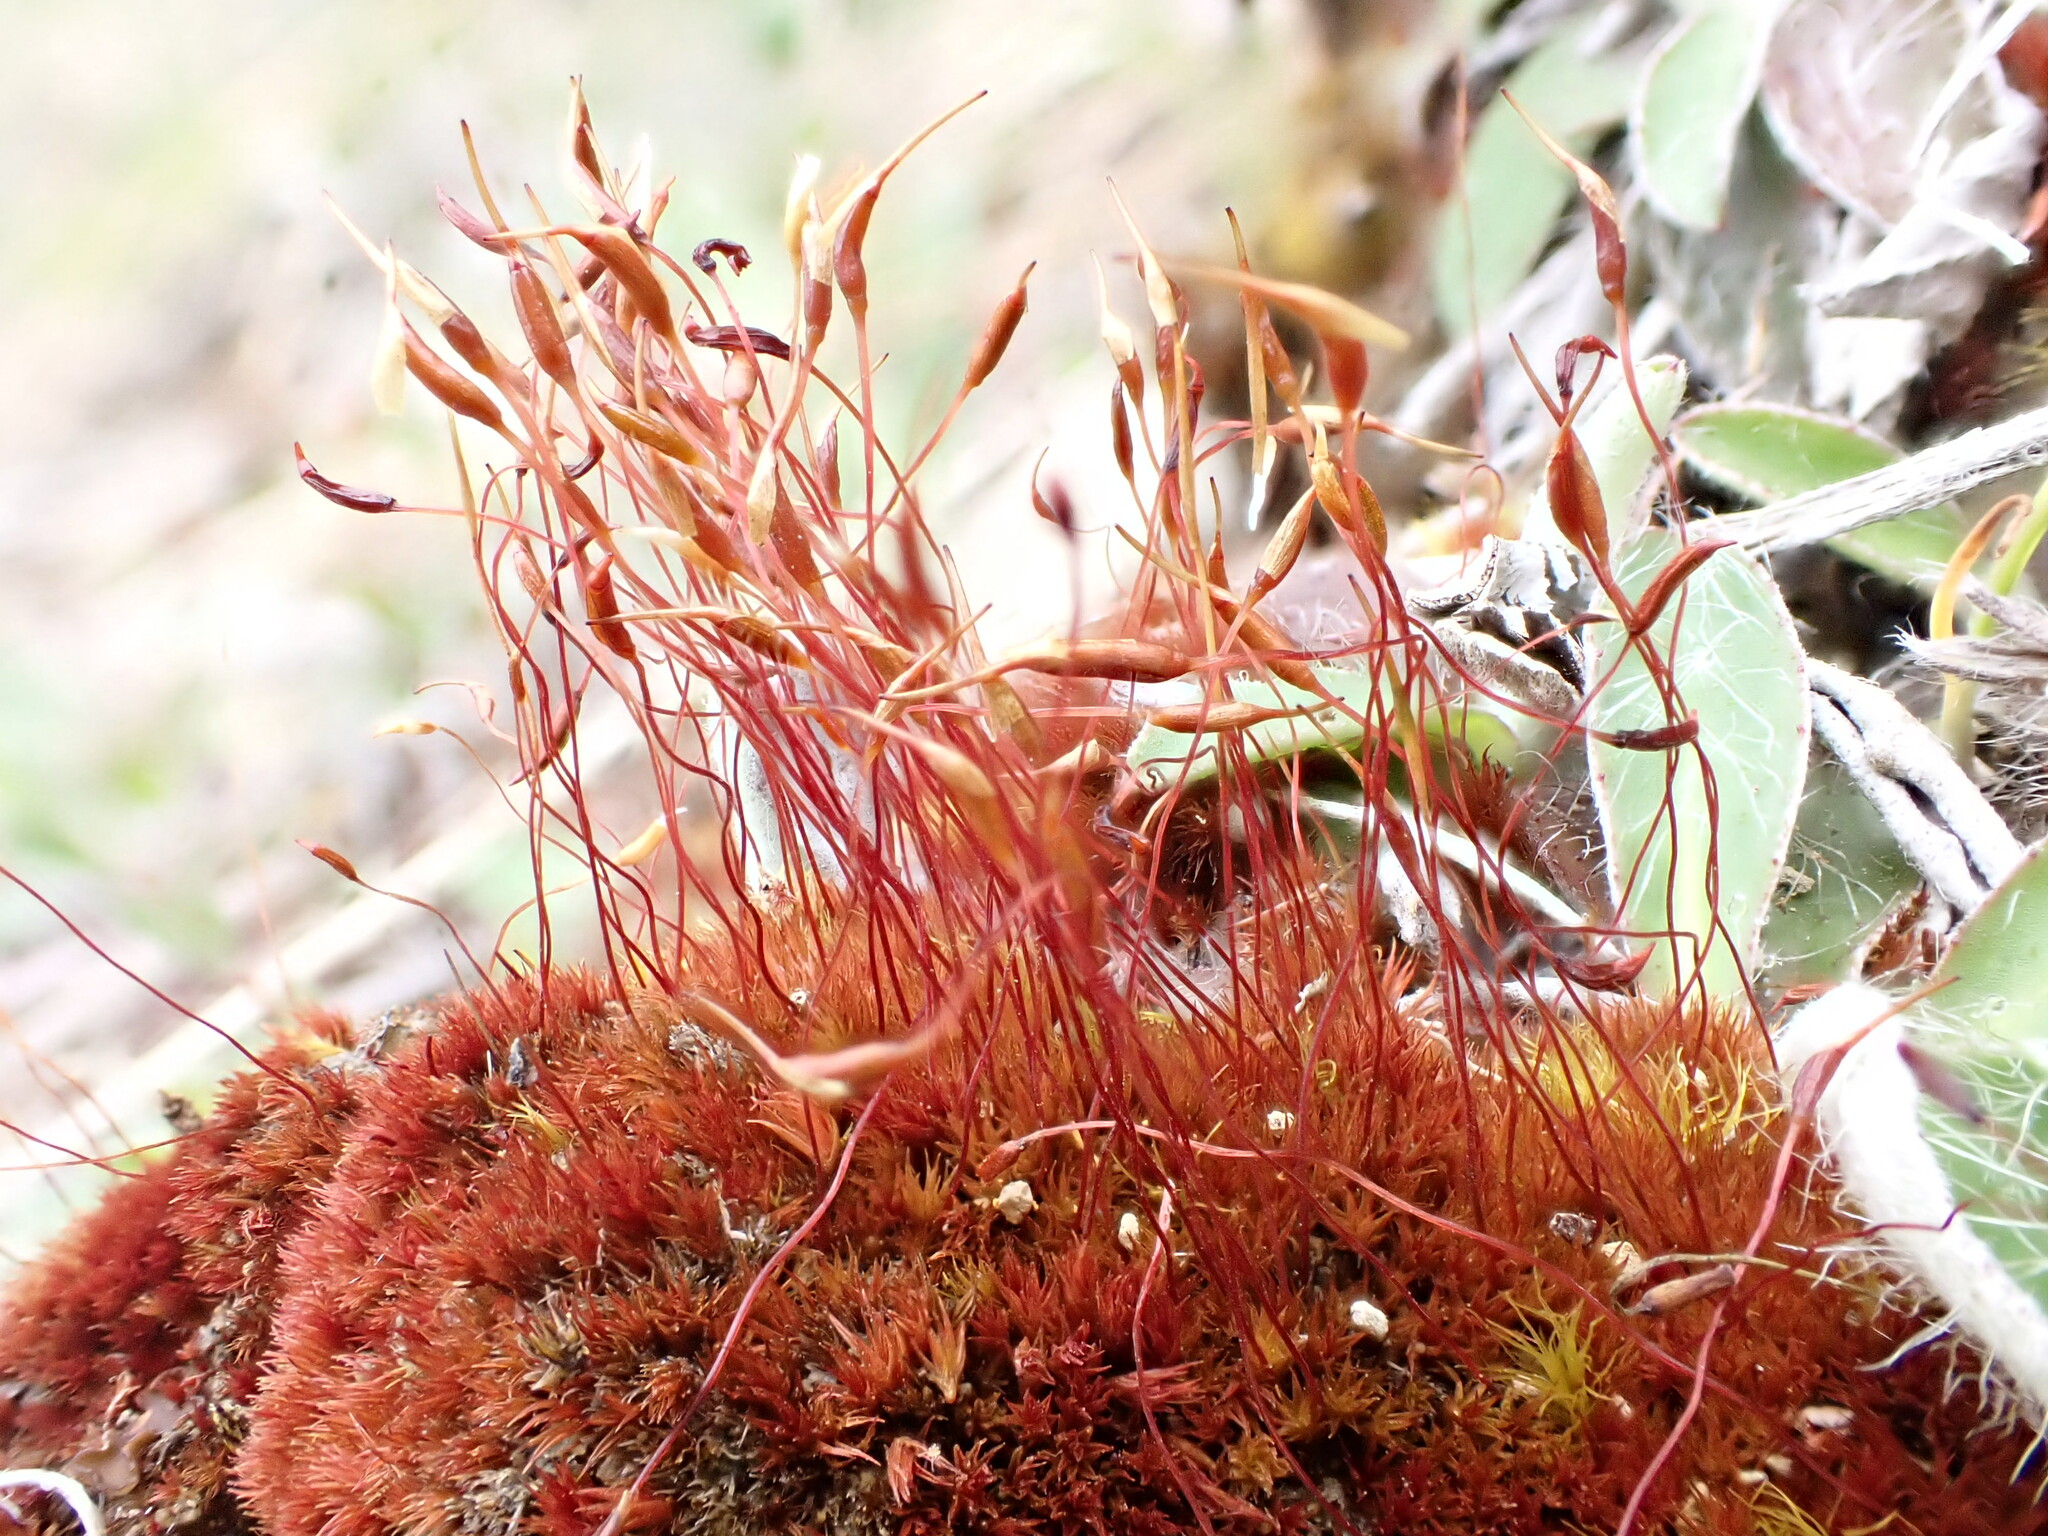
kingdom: Plantae
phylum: Bryophyta
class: Bryopsida
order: Dicranales
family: Ditrichaceae
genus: Ceratodon
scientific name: Ceratodon purpureus
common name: Redshank
